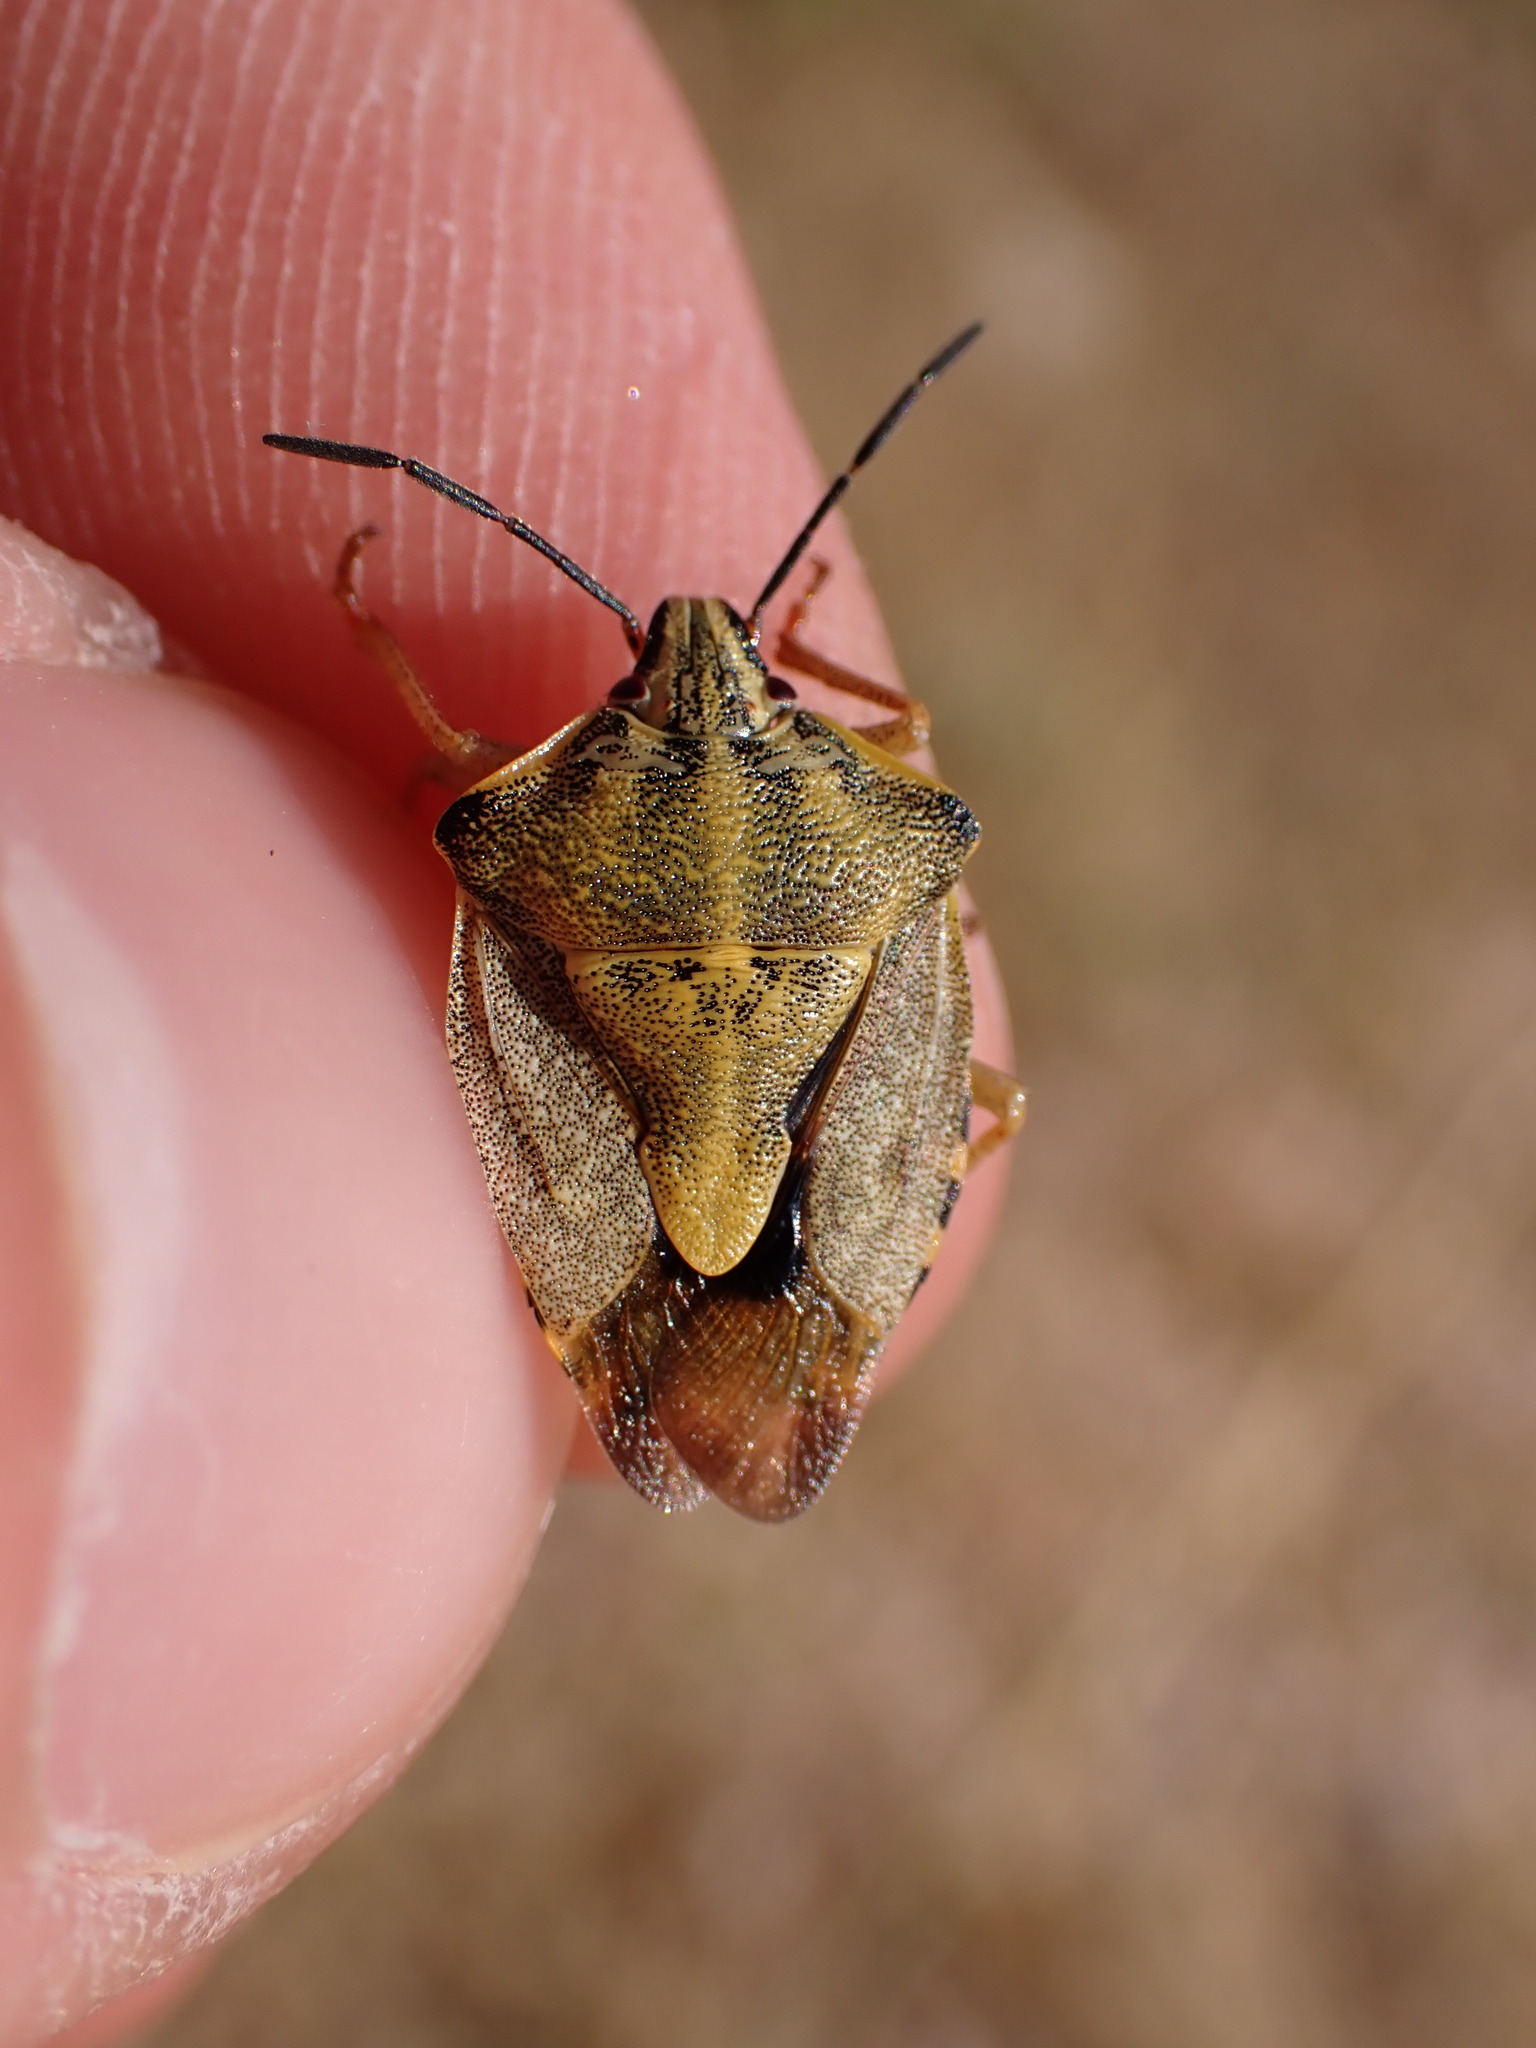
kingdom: Animalia
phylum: Arthropoda
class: Insecta
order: Hemiptera
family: Pentatomidae
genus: Carpocoris
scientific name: Carpocoris purpureipennis
